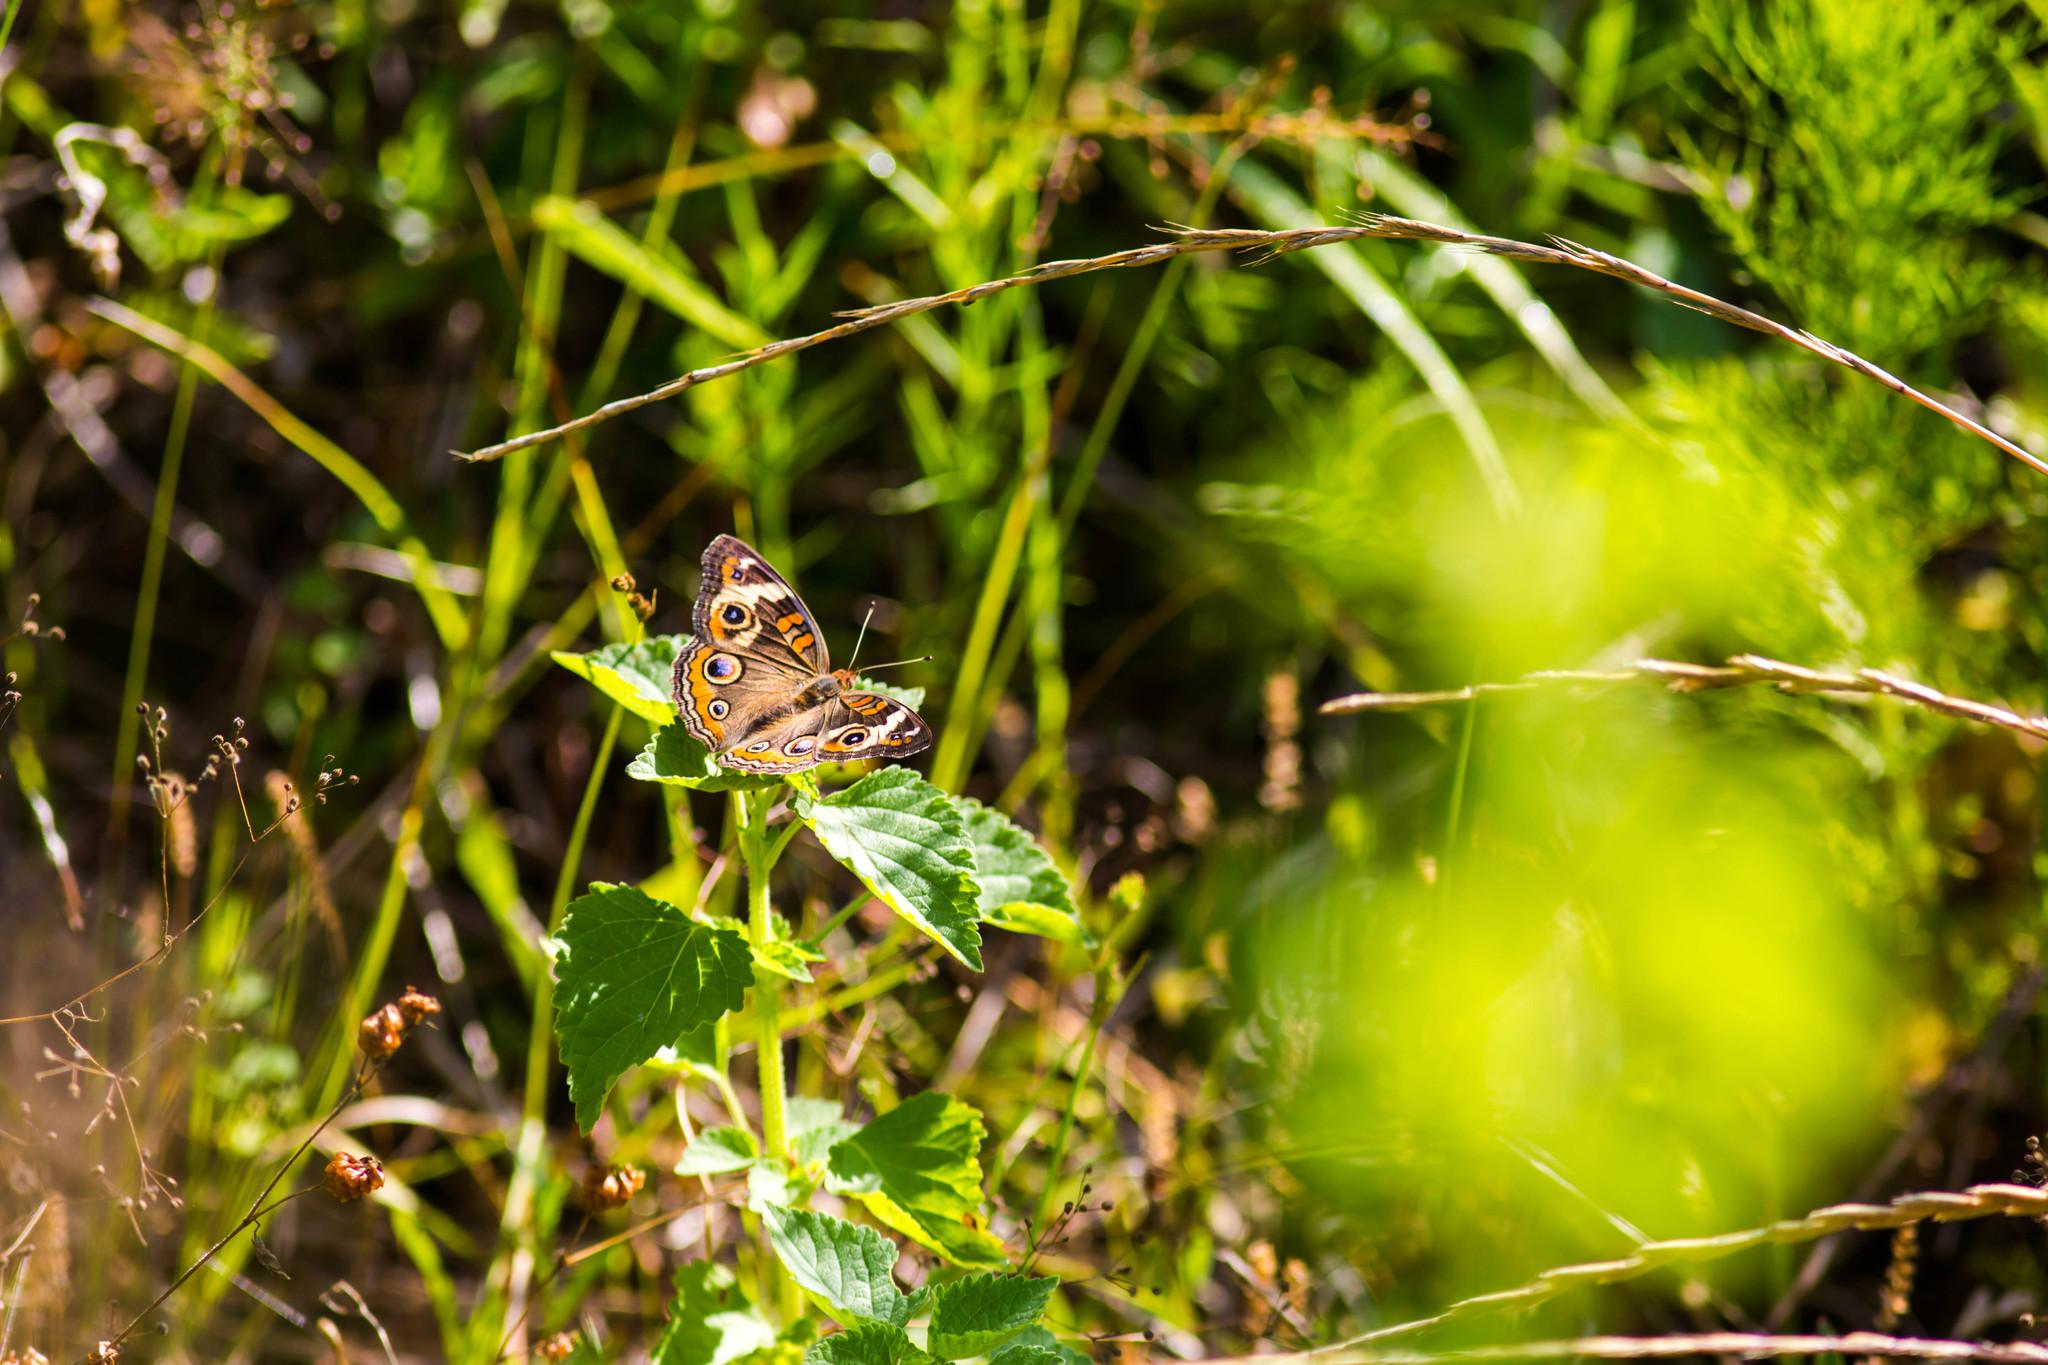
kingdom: Animalia
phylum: Arthropoda
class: Insecta
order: Lepidoptera
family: Nymphalidae
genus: Junonia
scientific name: Junonia coenia
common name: Common buckeye
